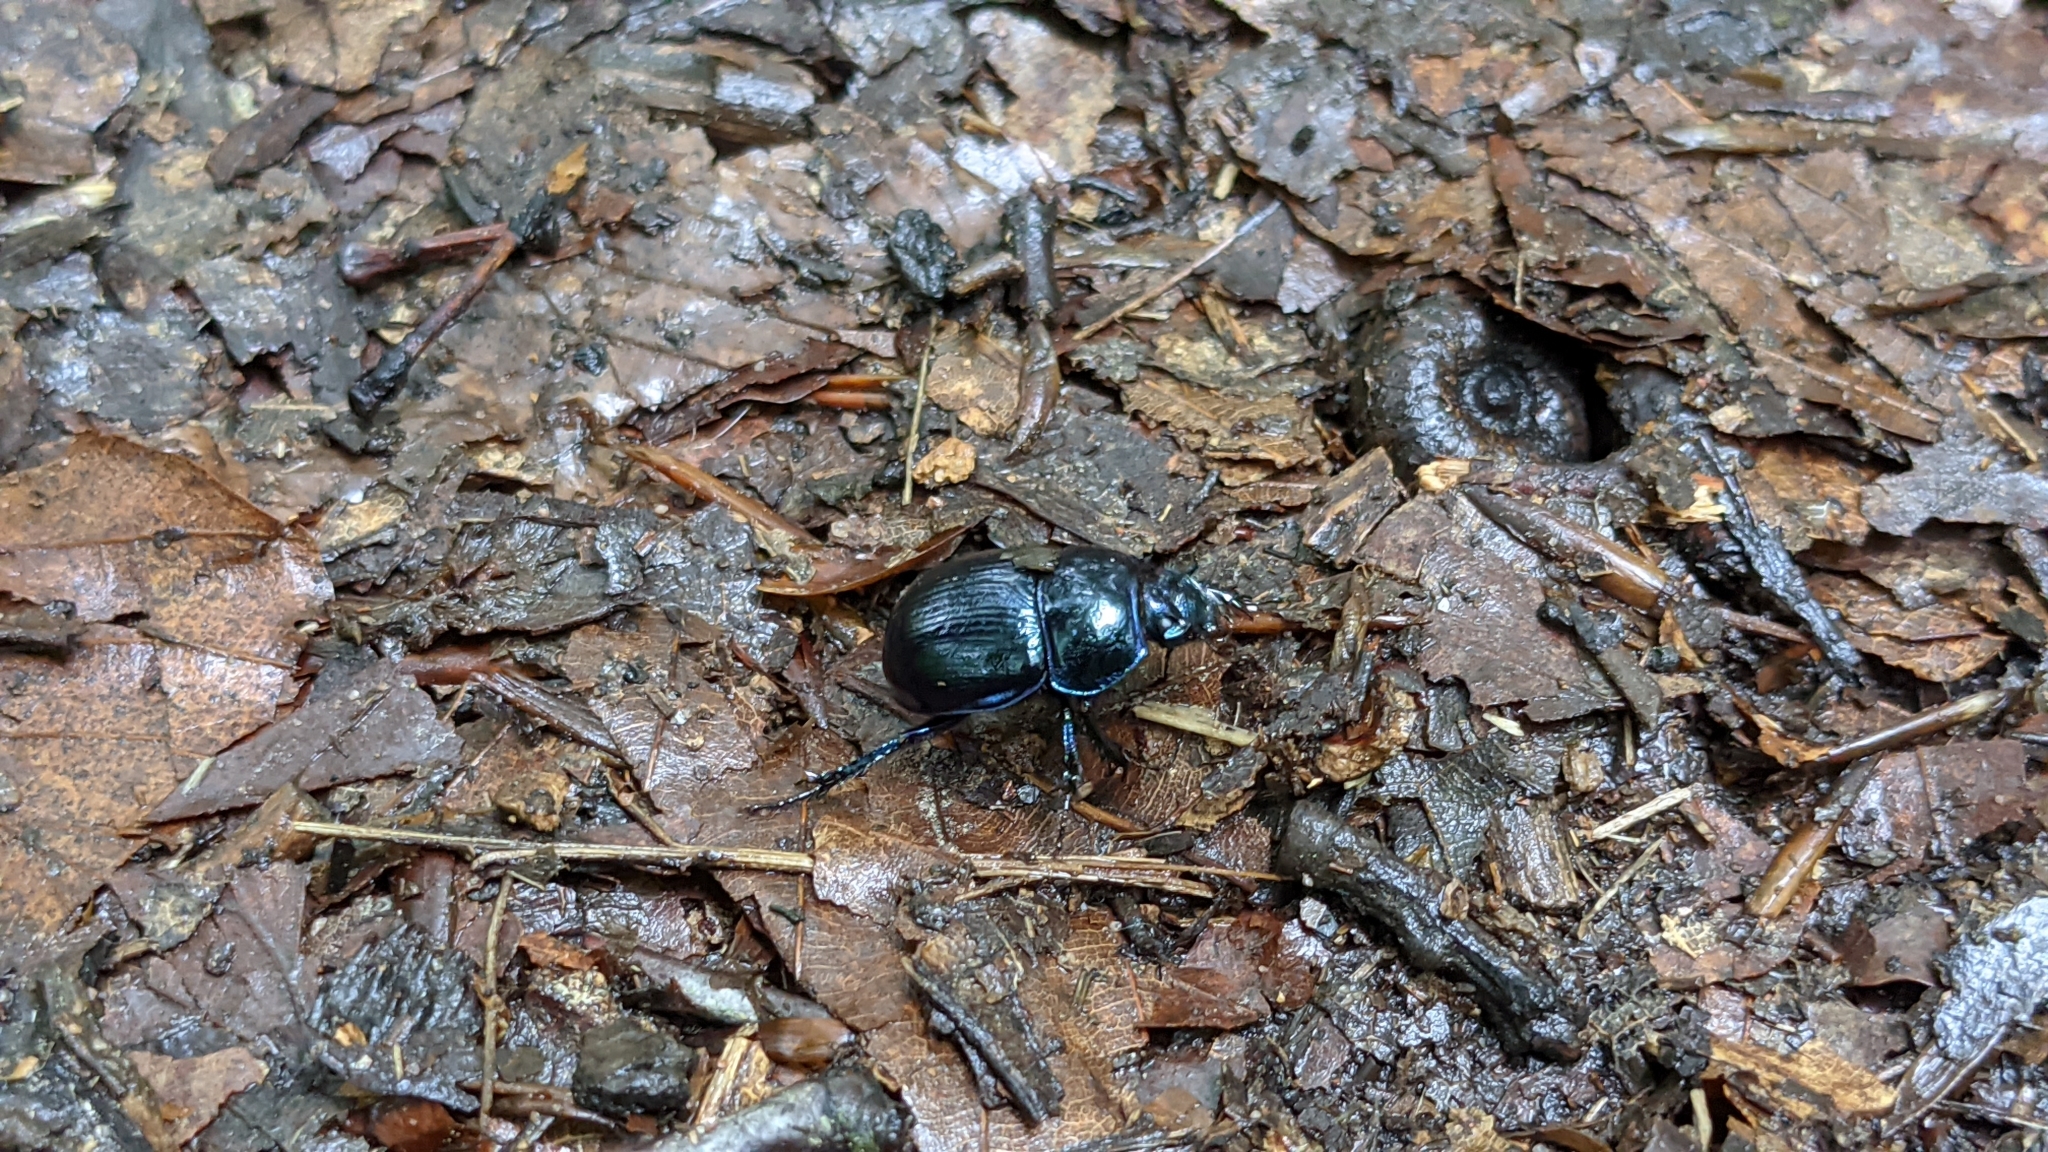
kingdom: Animalia
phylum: Arthropoda
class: Insecta
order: Coleoptera
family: Geotrupidae
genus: Anoplotrupes
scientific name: Anoplotrupes stercorosus
